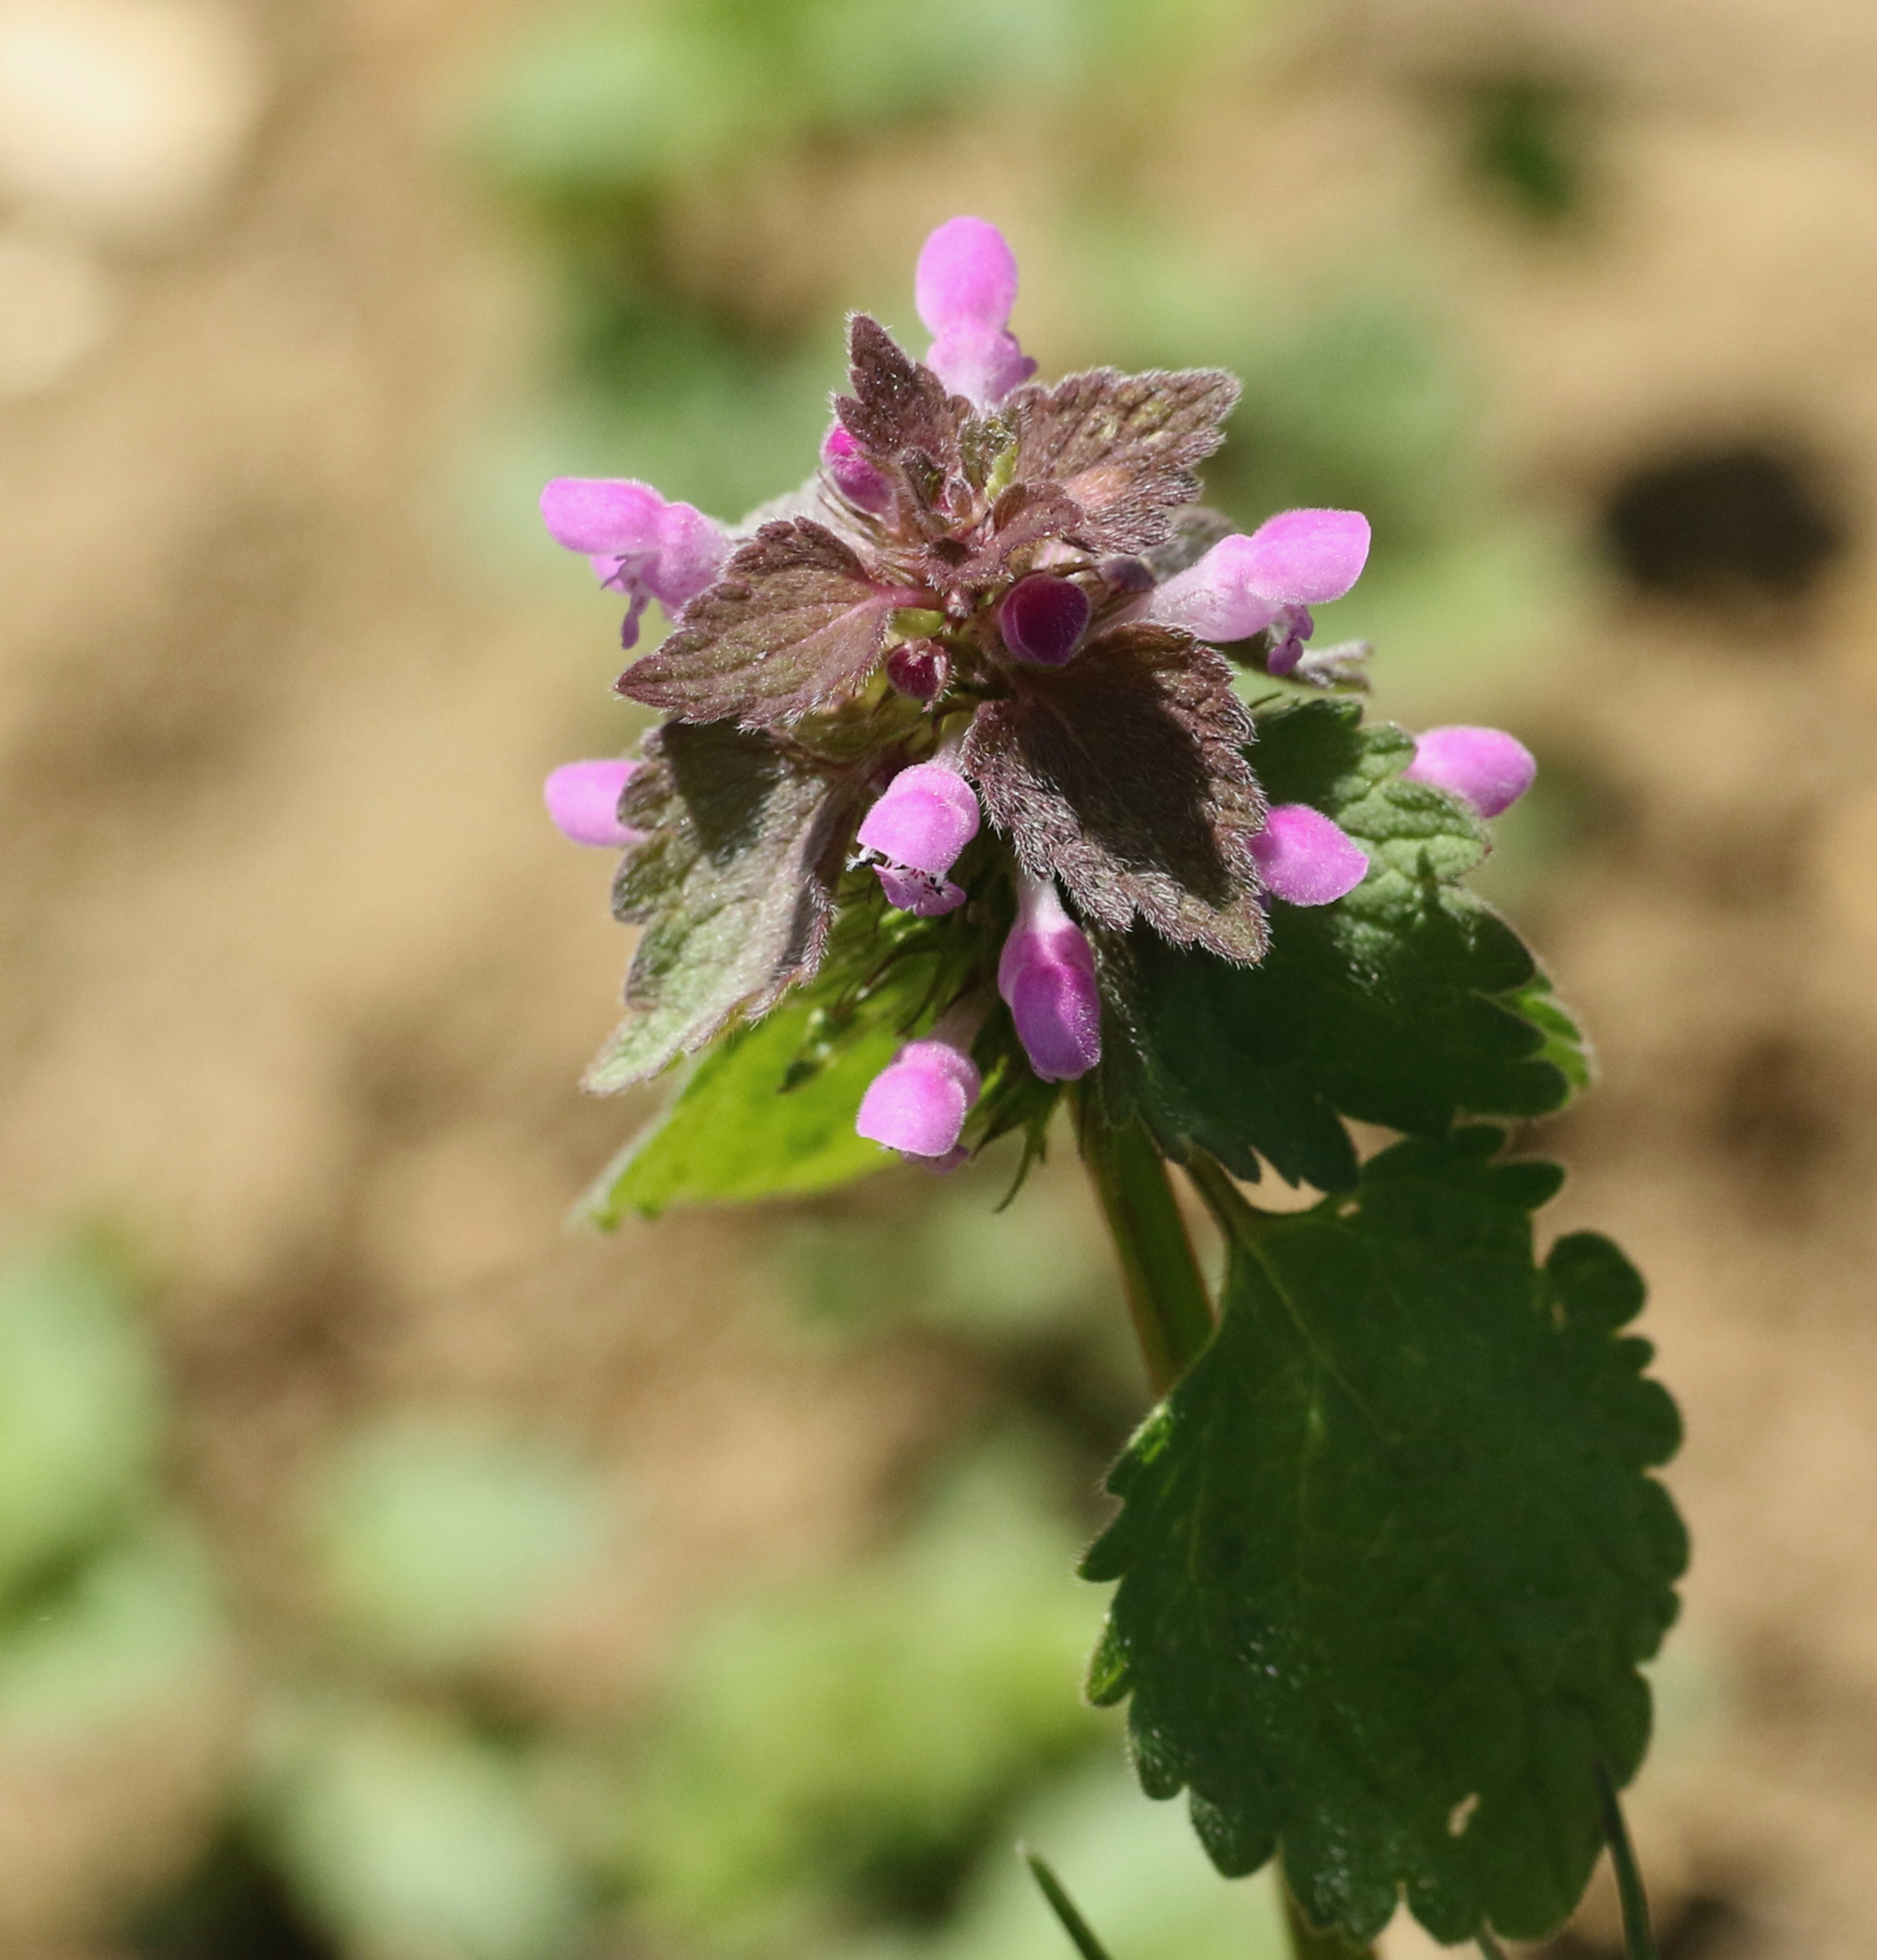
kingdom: Plantae
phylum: Tracheophyta
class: Magnoliopsida
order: Lamiales
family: Lamiaceae
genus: Lamium
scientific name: Lamium purpureum
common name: Red dead-nettle
